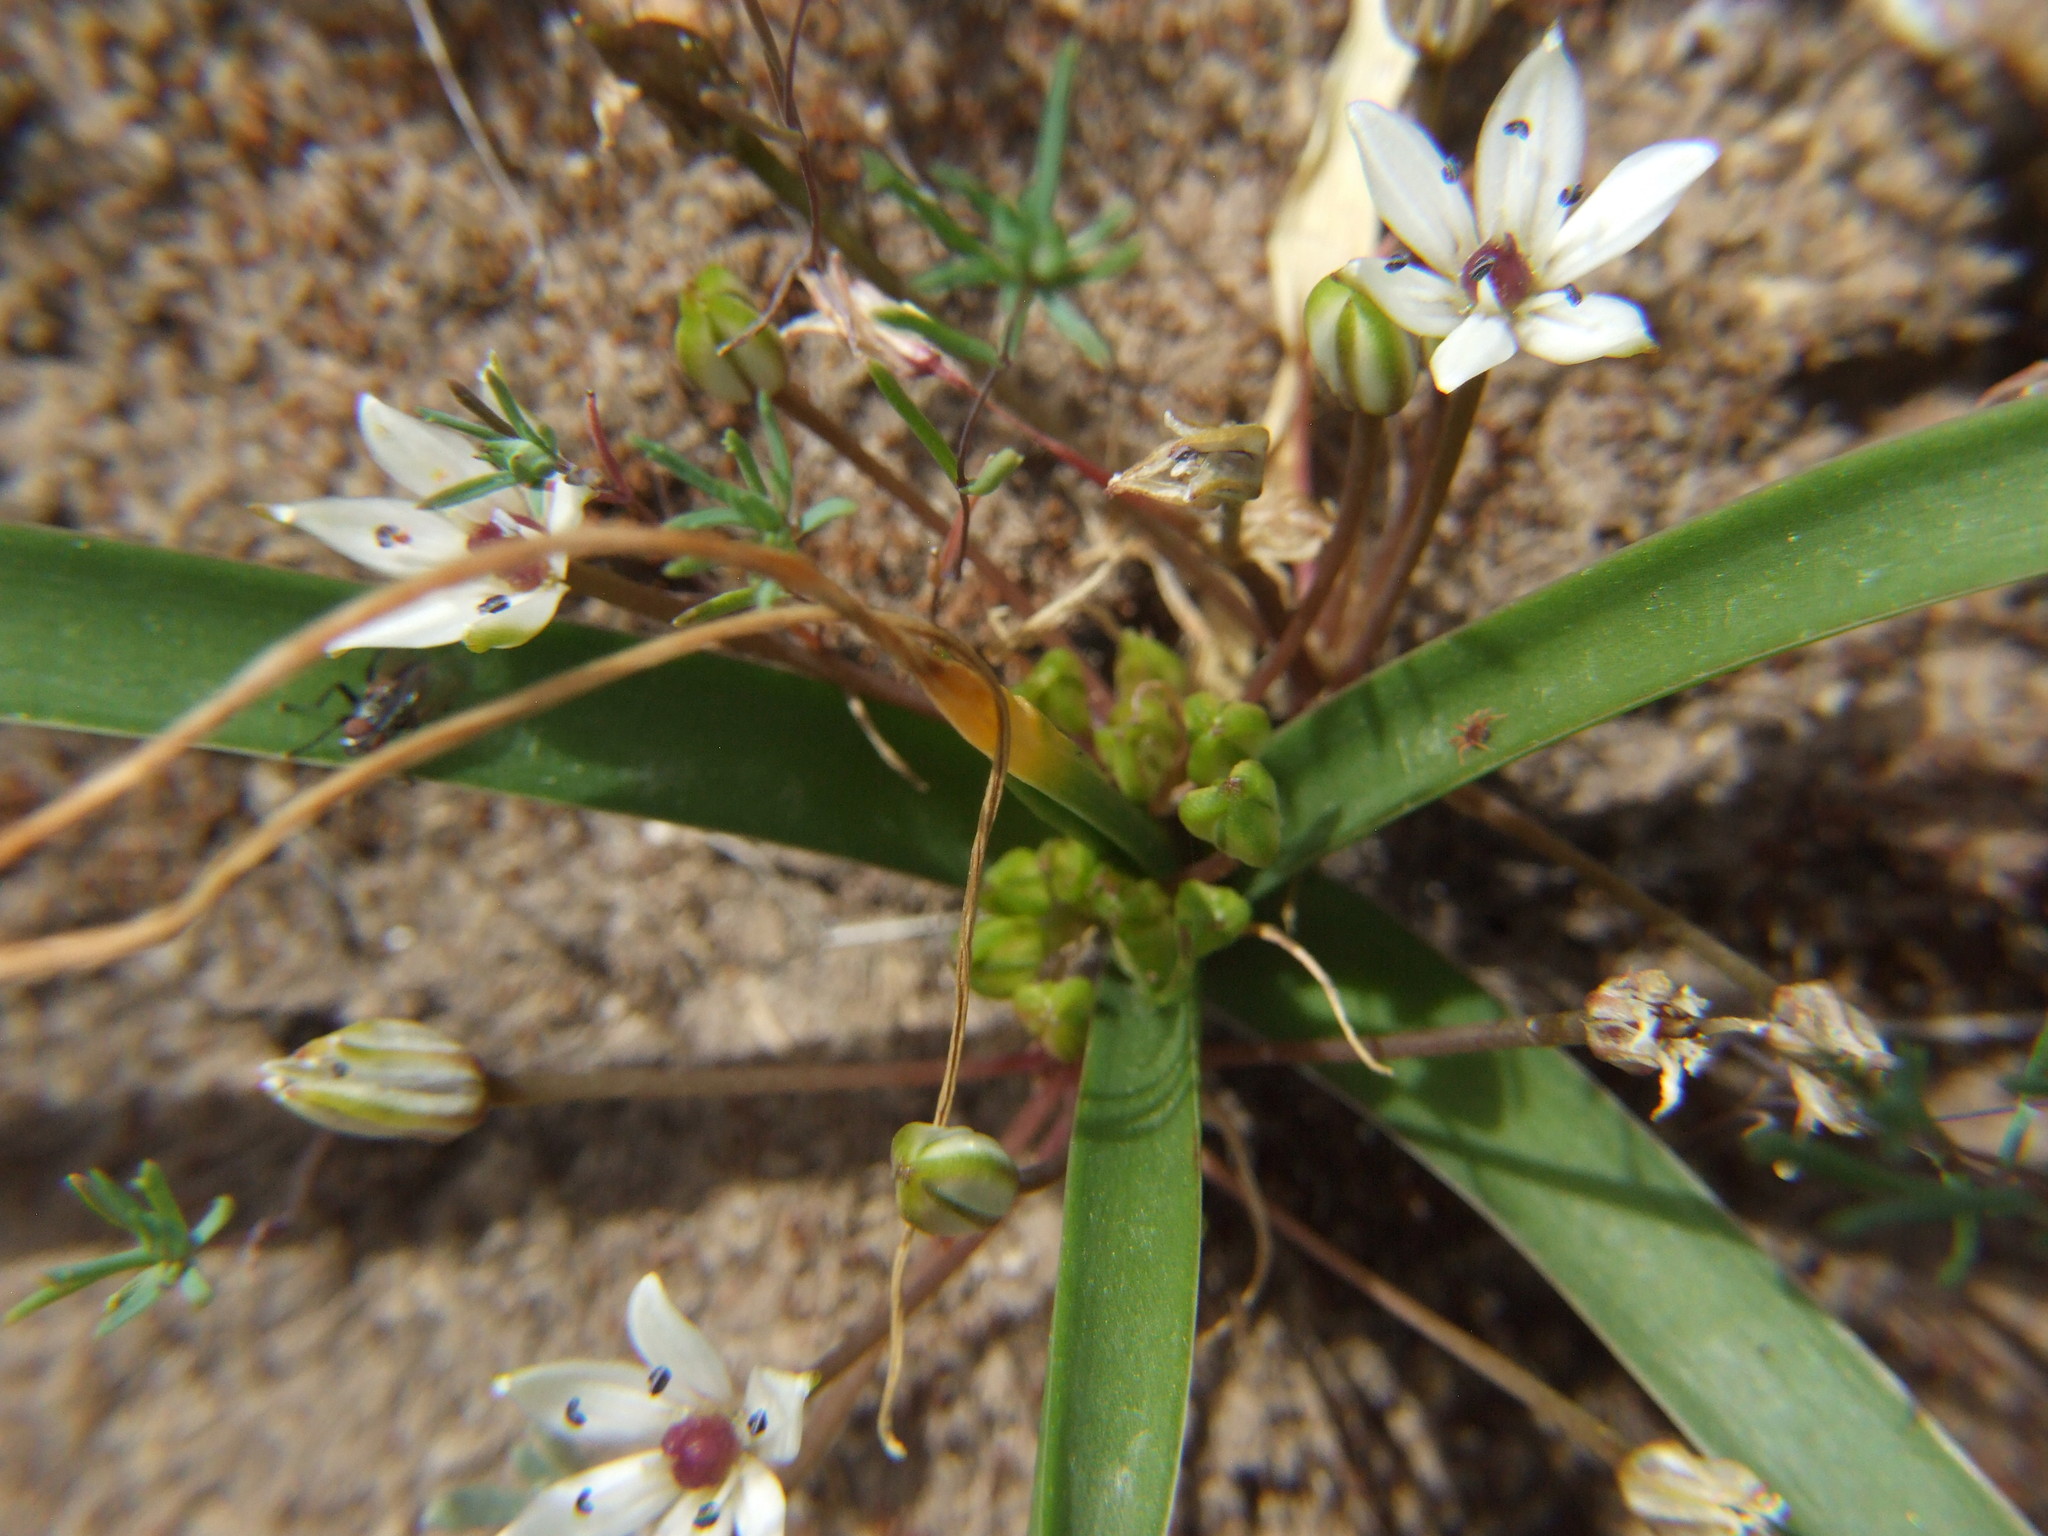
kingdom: Plantae
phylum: Tracheophyta
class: Liliopsida
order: Asparagales
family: Asparagaceae
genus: Oziroe
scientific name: Oziroe acaulis
